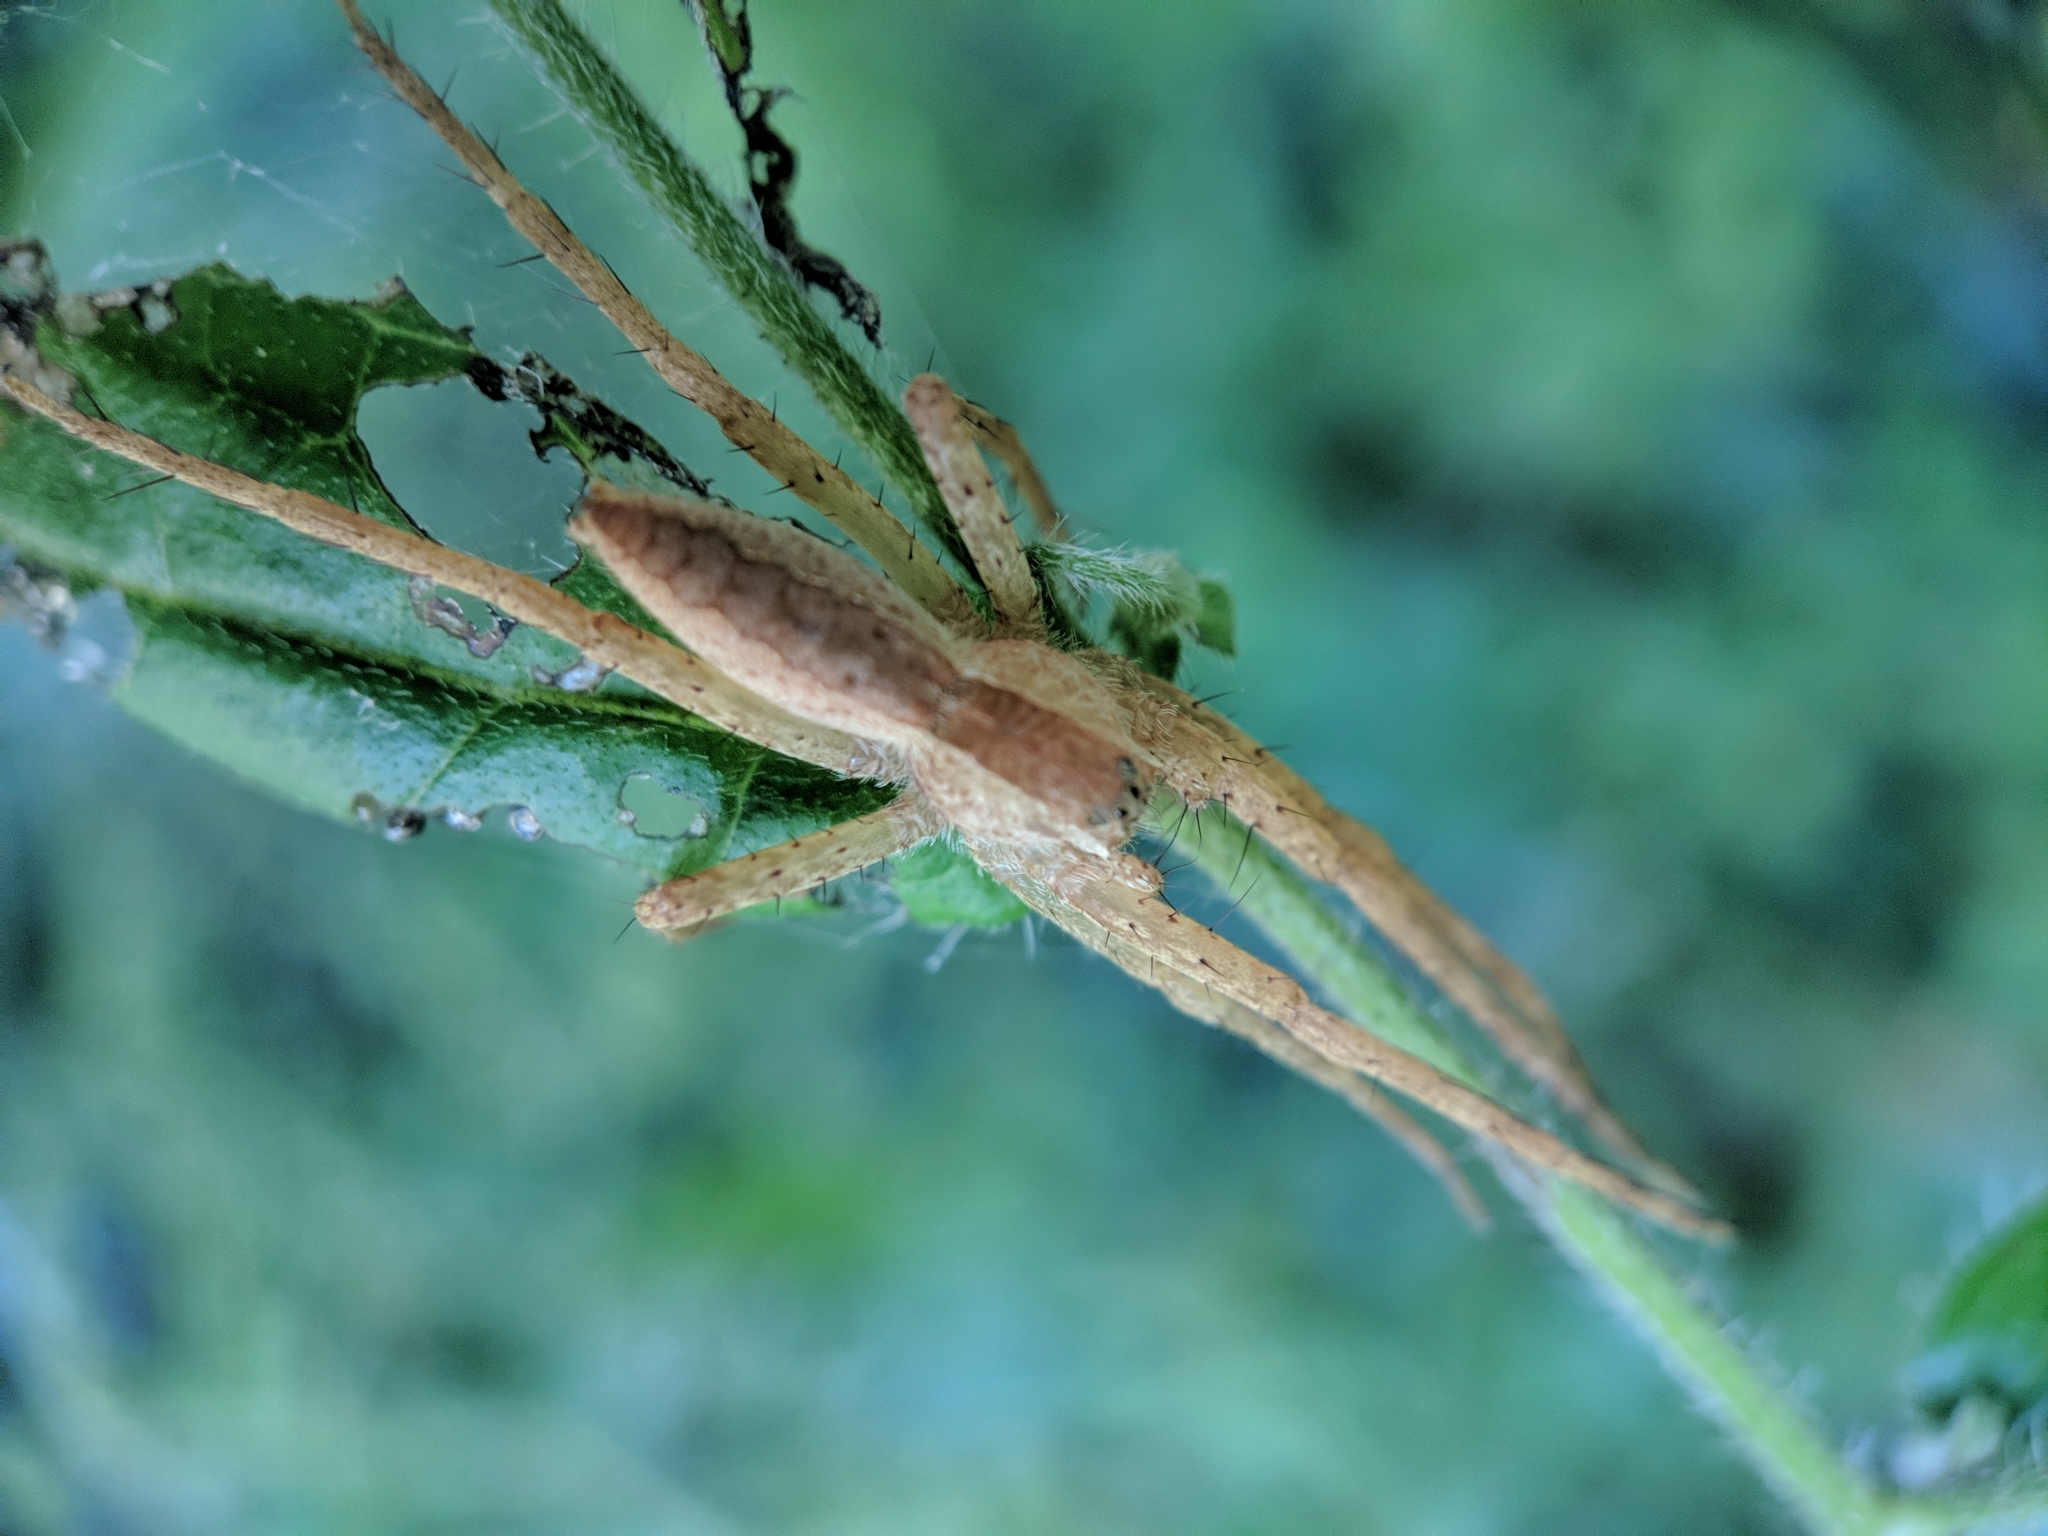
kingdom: Animalia
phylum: Arthropoda
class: Arachnida
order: Araneae
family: Pisauridae
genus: Pisaurina
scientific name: Pisaurina mira
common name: American nursery web spider
